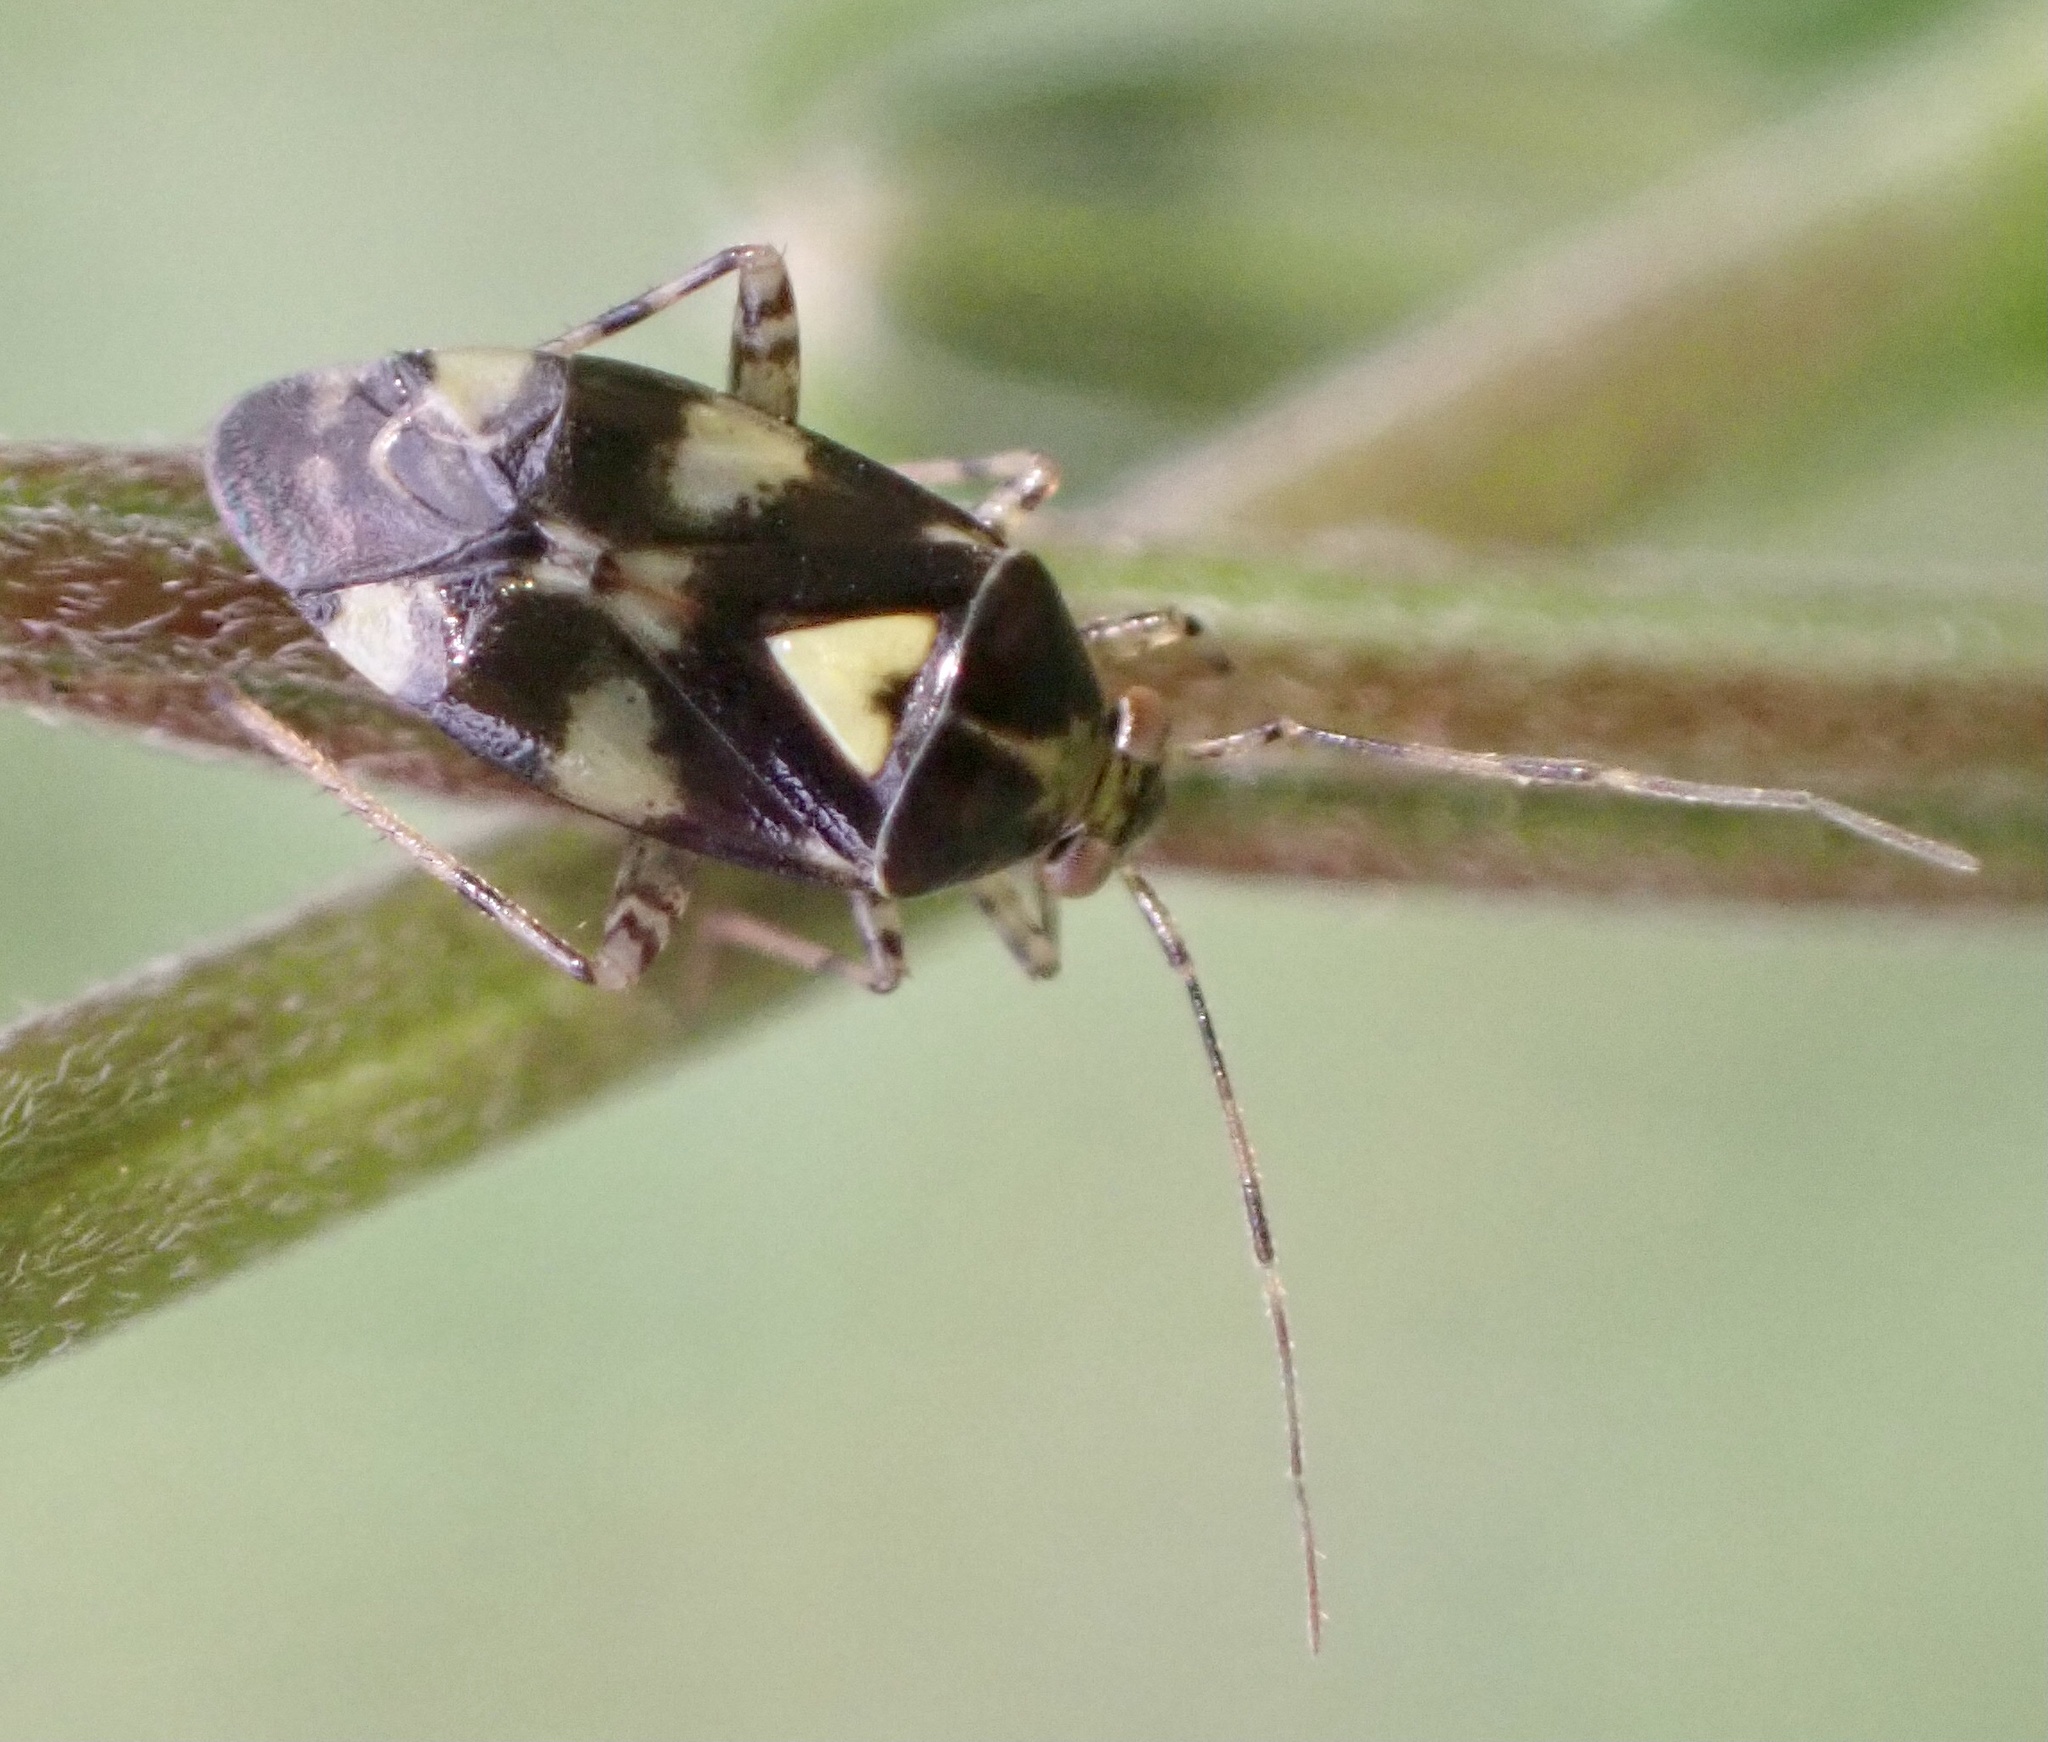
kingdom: Animalia
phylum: Arthropoda
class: Insecta
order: Hemiptera
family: Miridae
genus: Liocoris
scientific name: Liocoris tripustulatus
